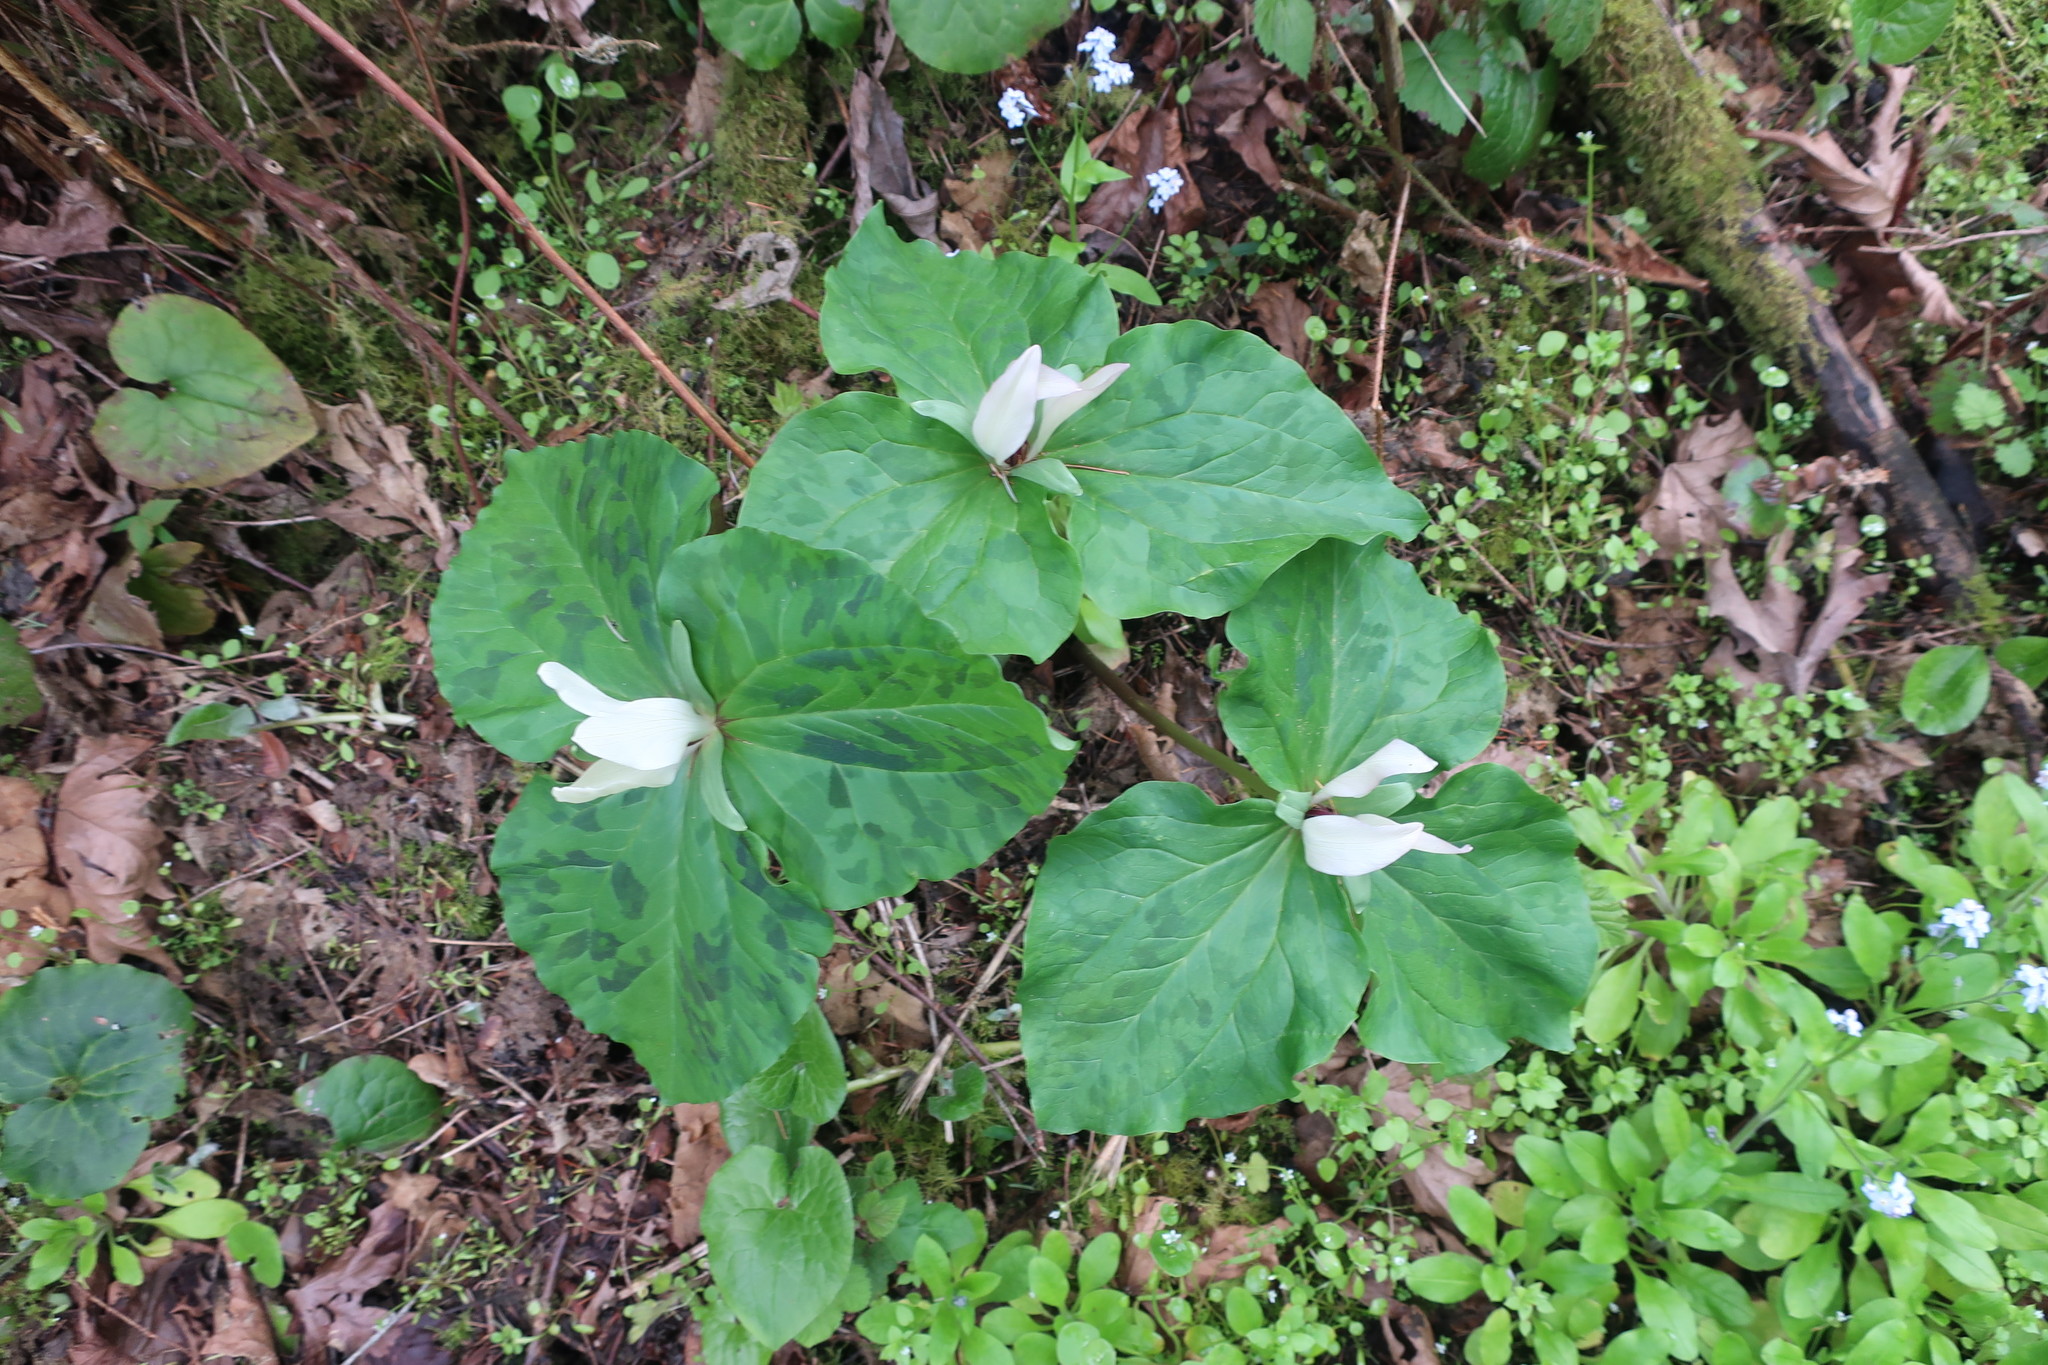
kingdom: Plantae
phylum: Tracheophyta
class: Liliopsida
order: Liliales
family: Melanthiaceae
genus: Trillium
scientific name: Trillium chloropetalum
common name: Giant trillium
